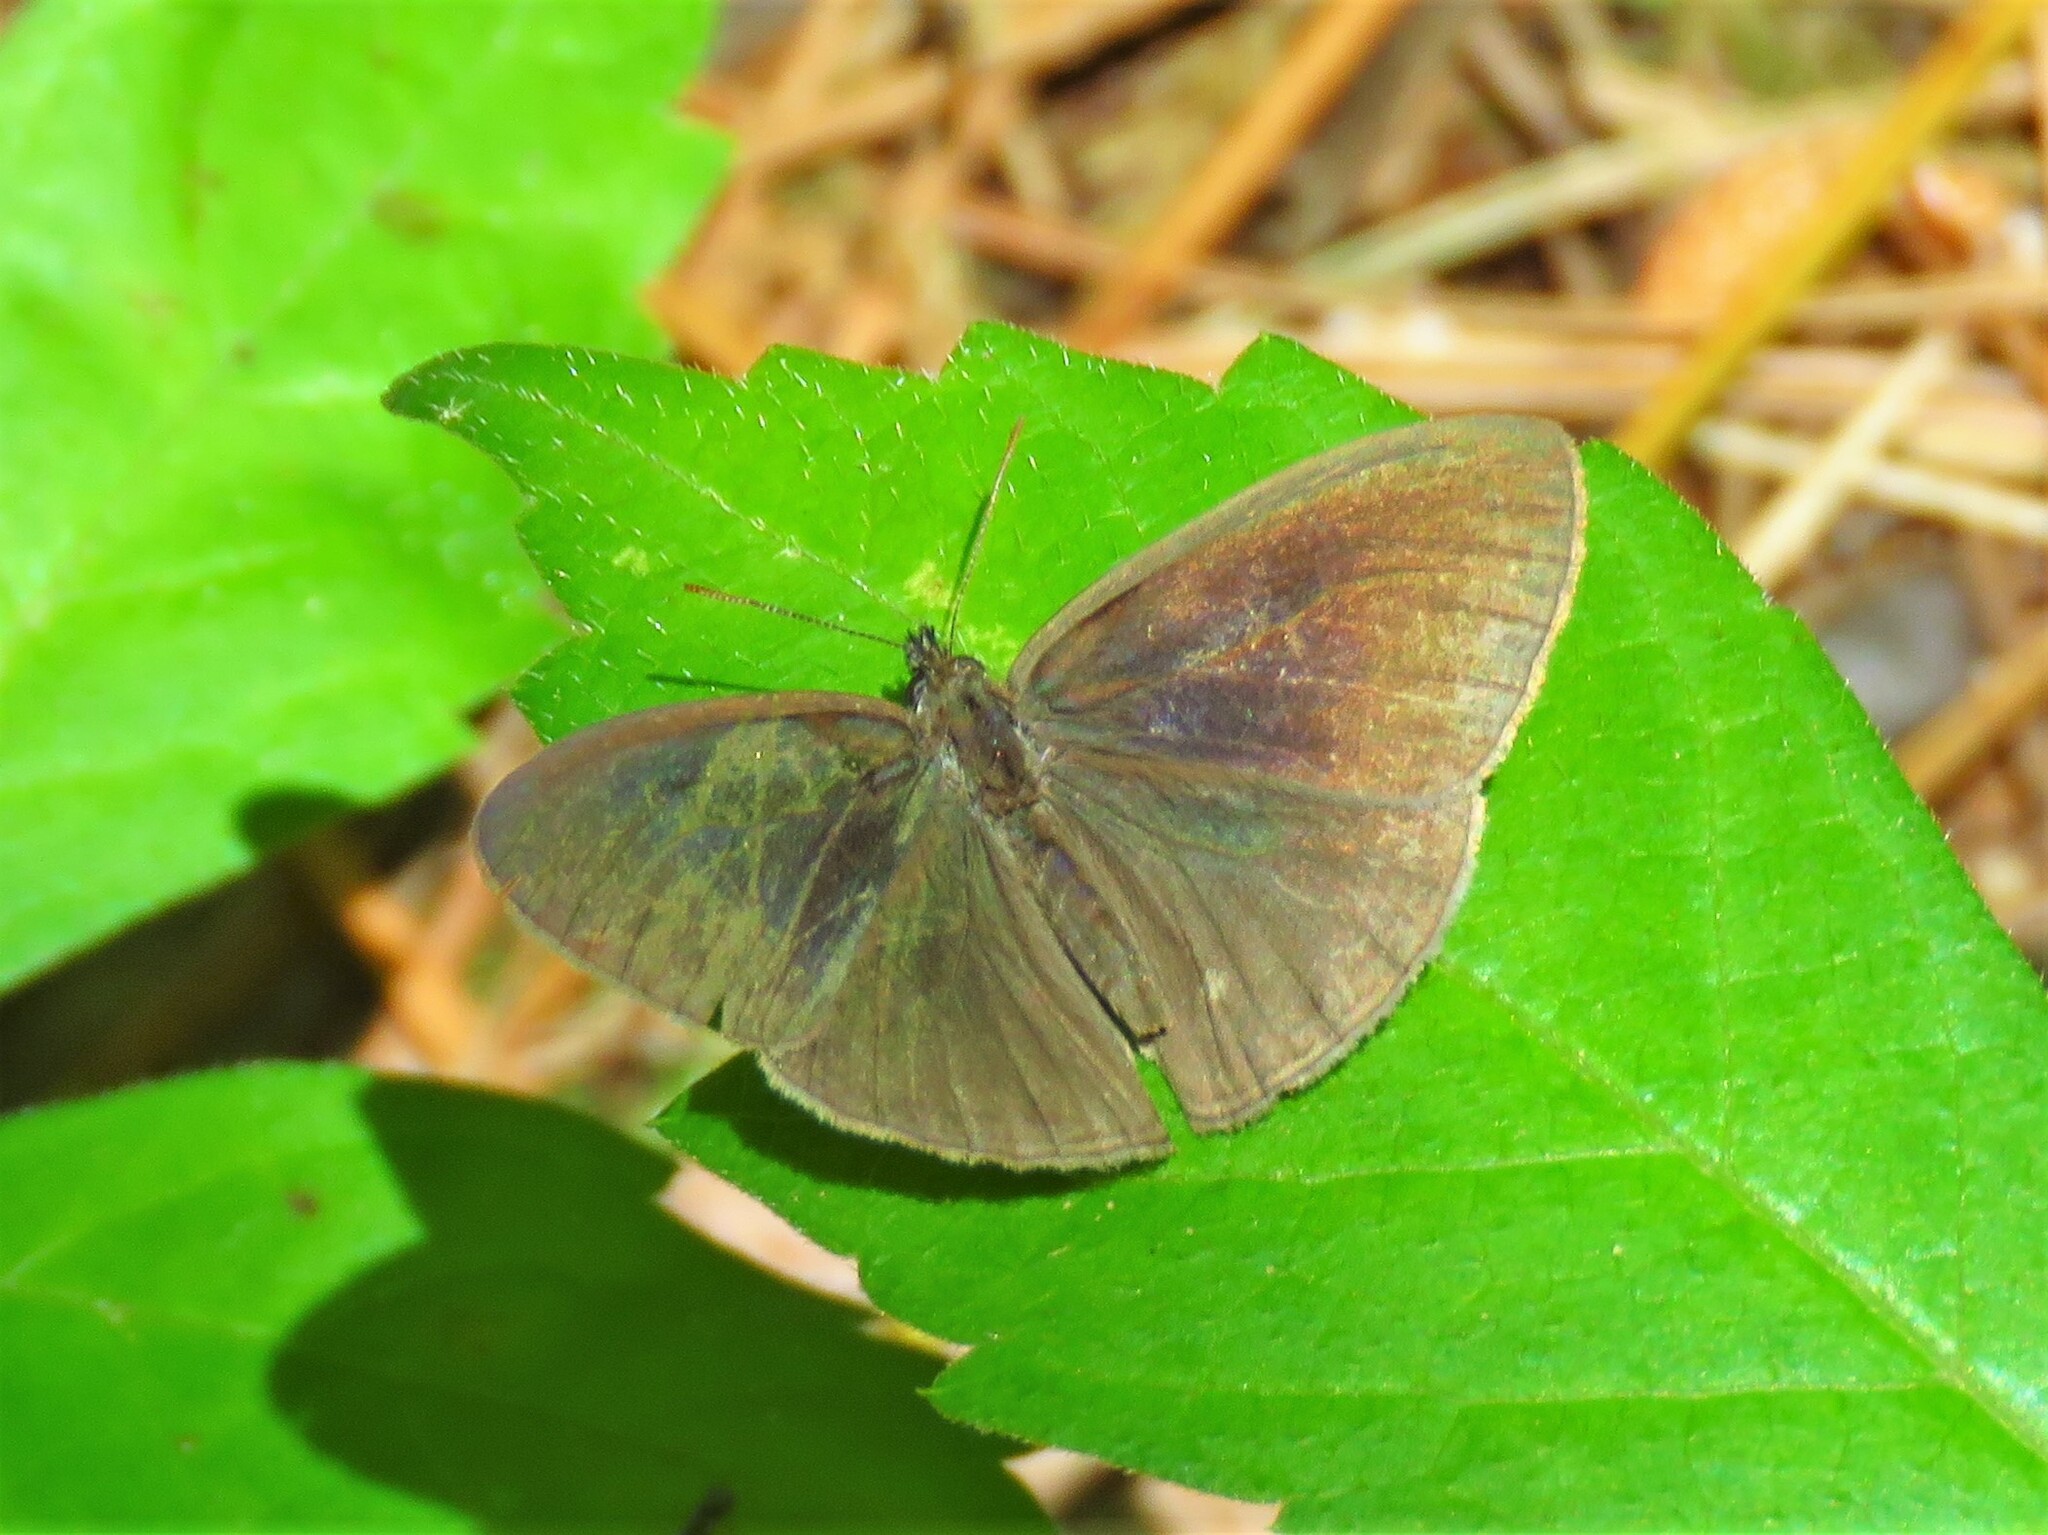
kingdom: Animalia
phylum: Arthropoda
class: Insecta
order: Lepidoptera
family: Nymphalidae
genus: Hermeuptychia
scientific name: Hermeuptychia hermes
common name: Hermes satyr
